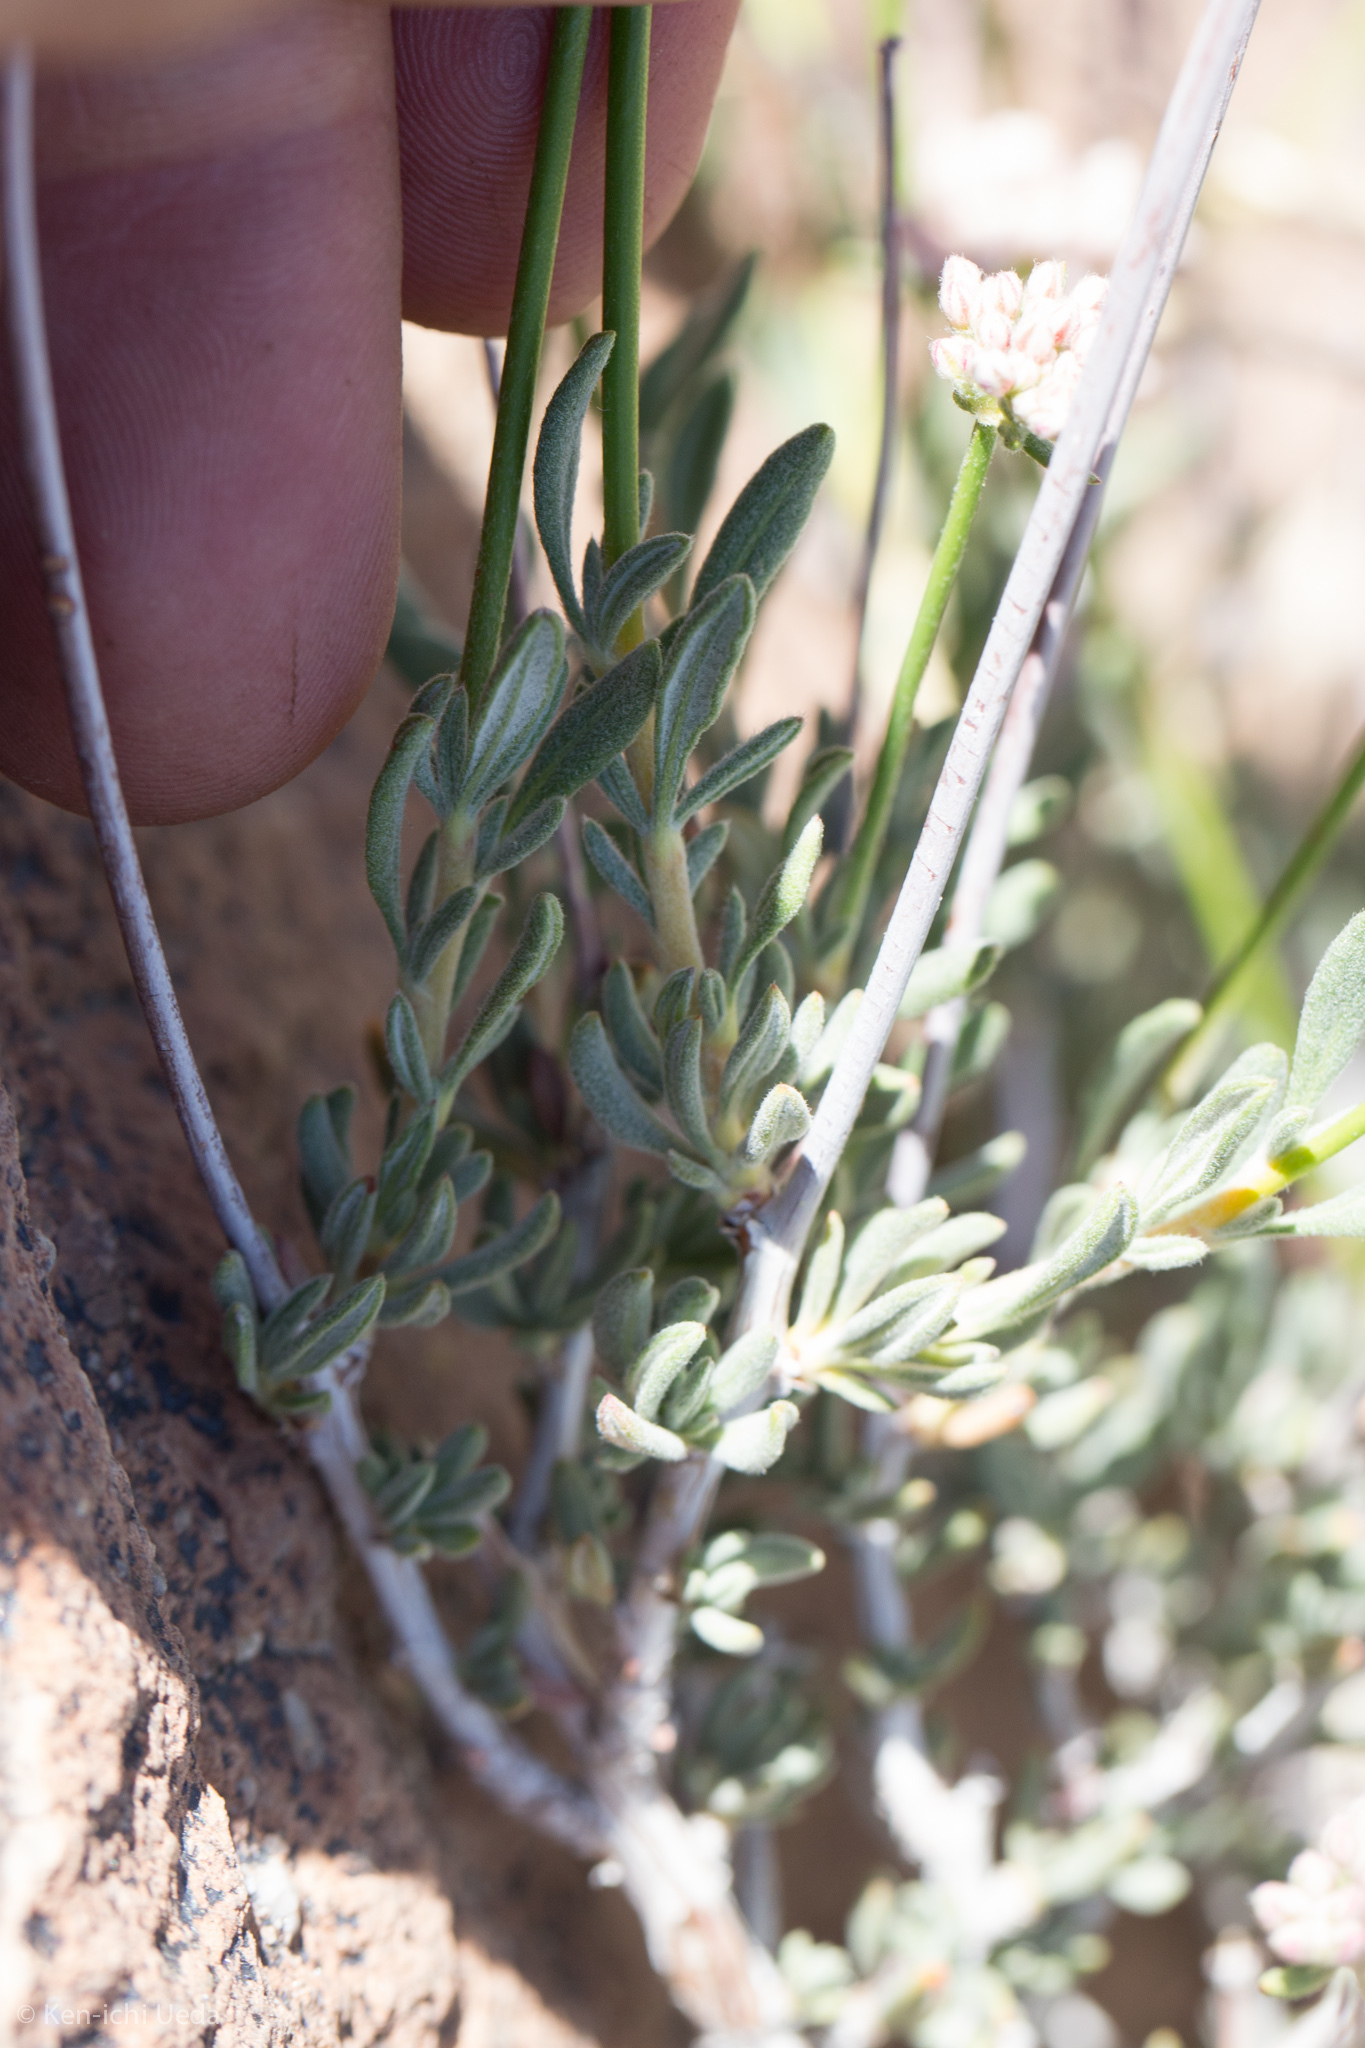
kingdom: Plantae
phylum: Tracheophyta
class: Magnoliopsida
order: Caryophyllales
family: Polygonaceae
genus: Eriogonum
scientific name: Eriogonum fasciculatum
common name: California wild buckwheat
